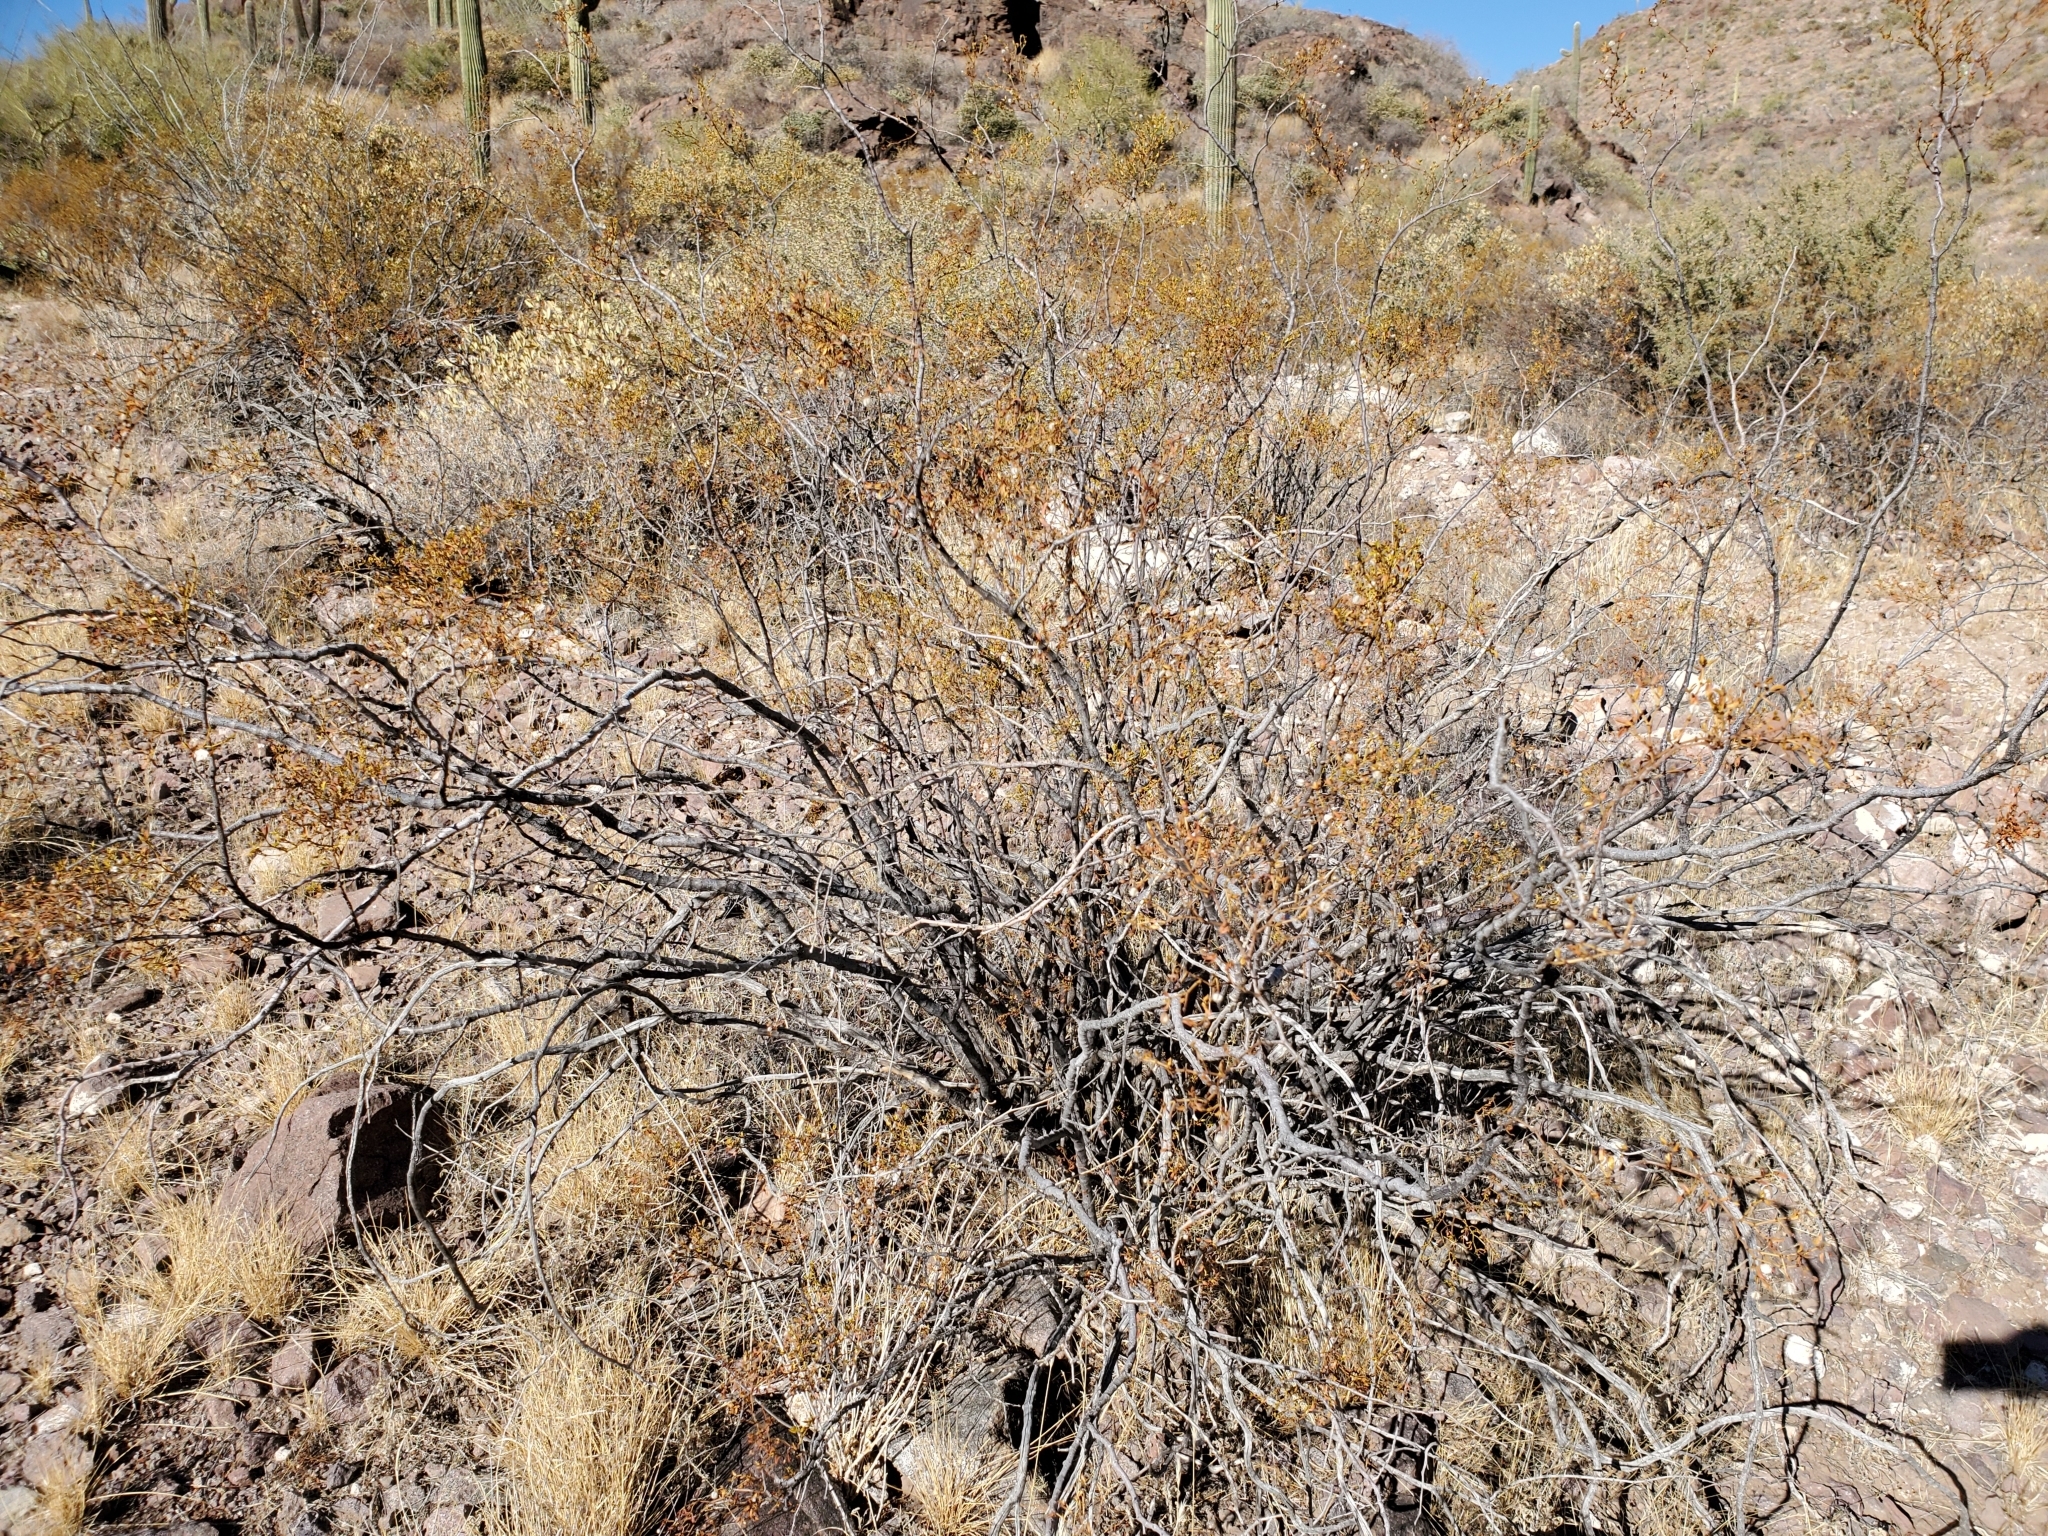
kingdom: Plantae
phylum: Tracheophyta
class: Magnoliopsida
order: Zygophyllales
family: Zygophyllaceae
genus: Larrea
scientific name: Larrea tridentata
